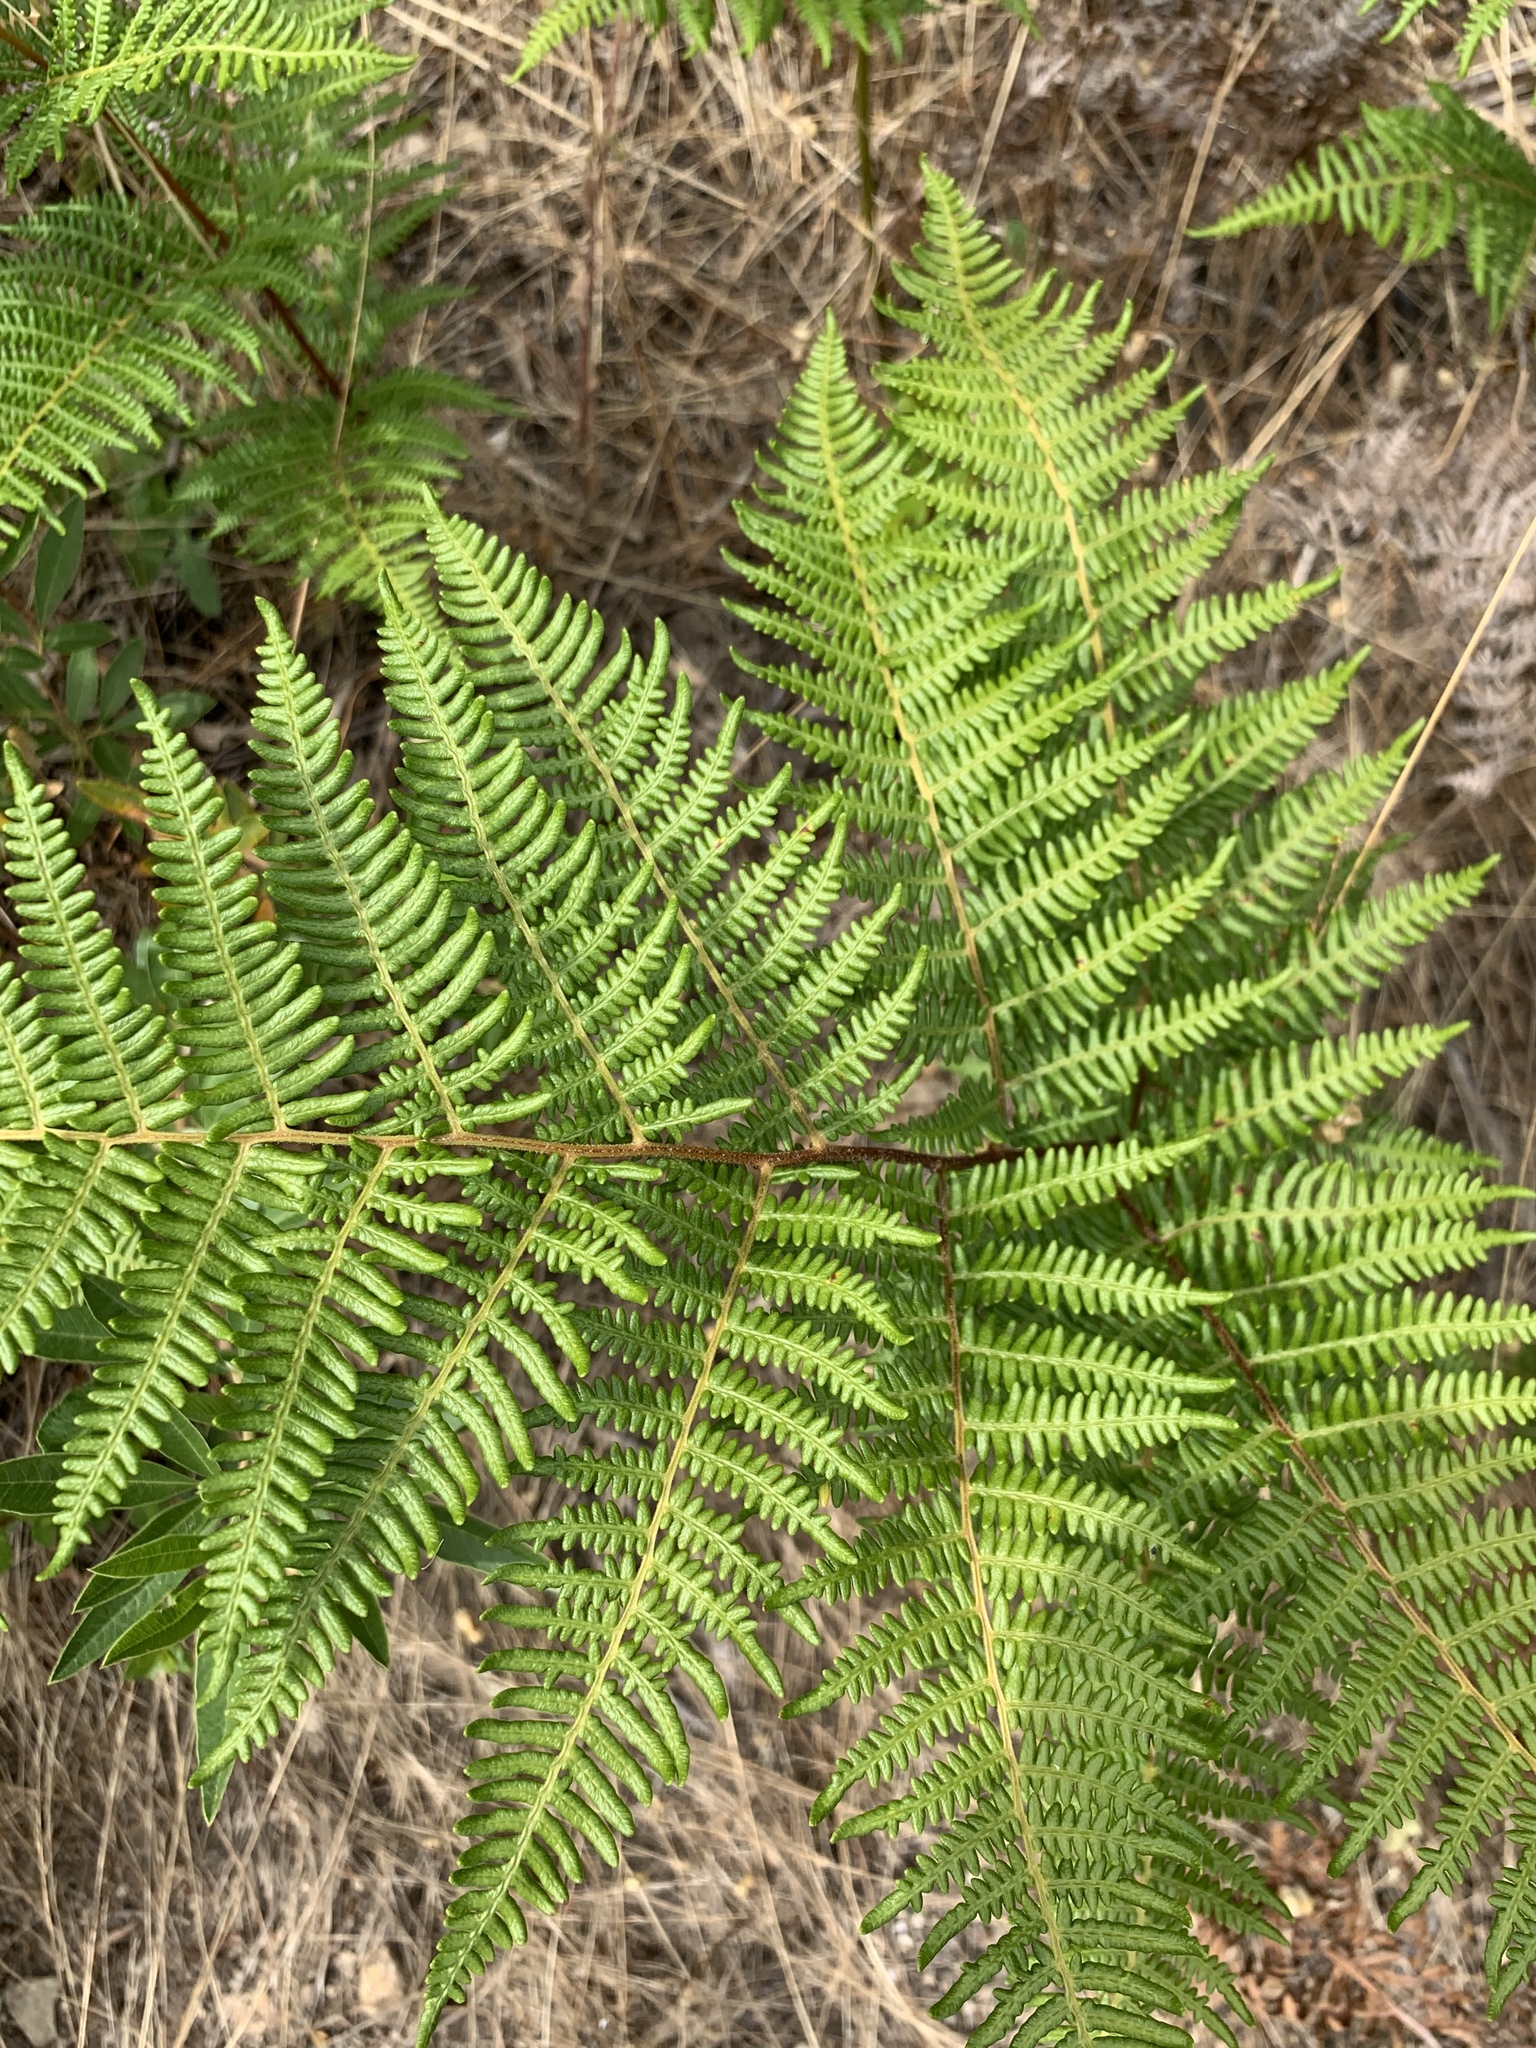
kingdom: Plantae
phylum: Tracheophyta
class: Polypodiopsida
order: Polypodiales
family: Dennstaedtiaceae
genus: Pteridium
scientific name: Pteridium aquilinum
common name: Bracken
